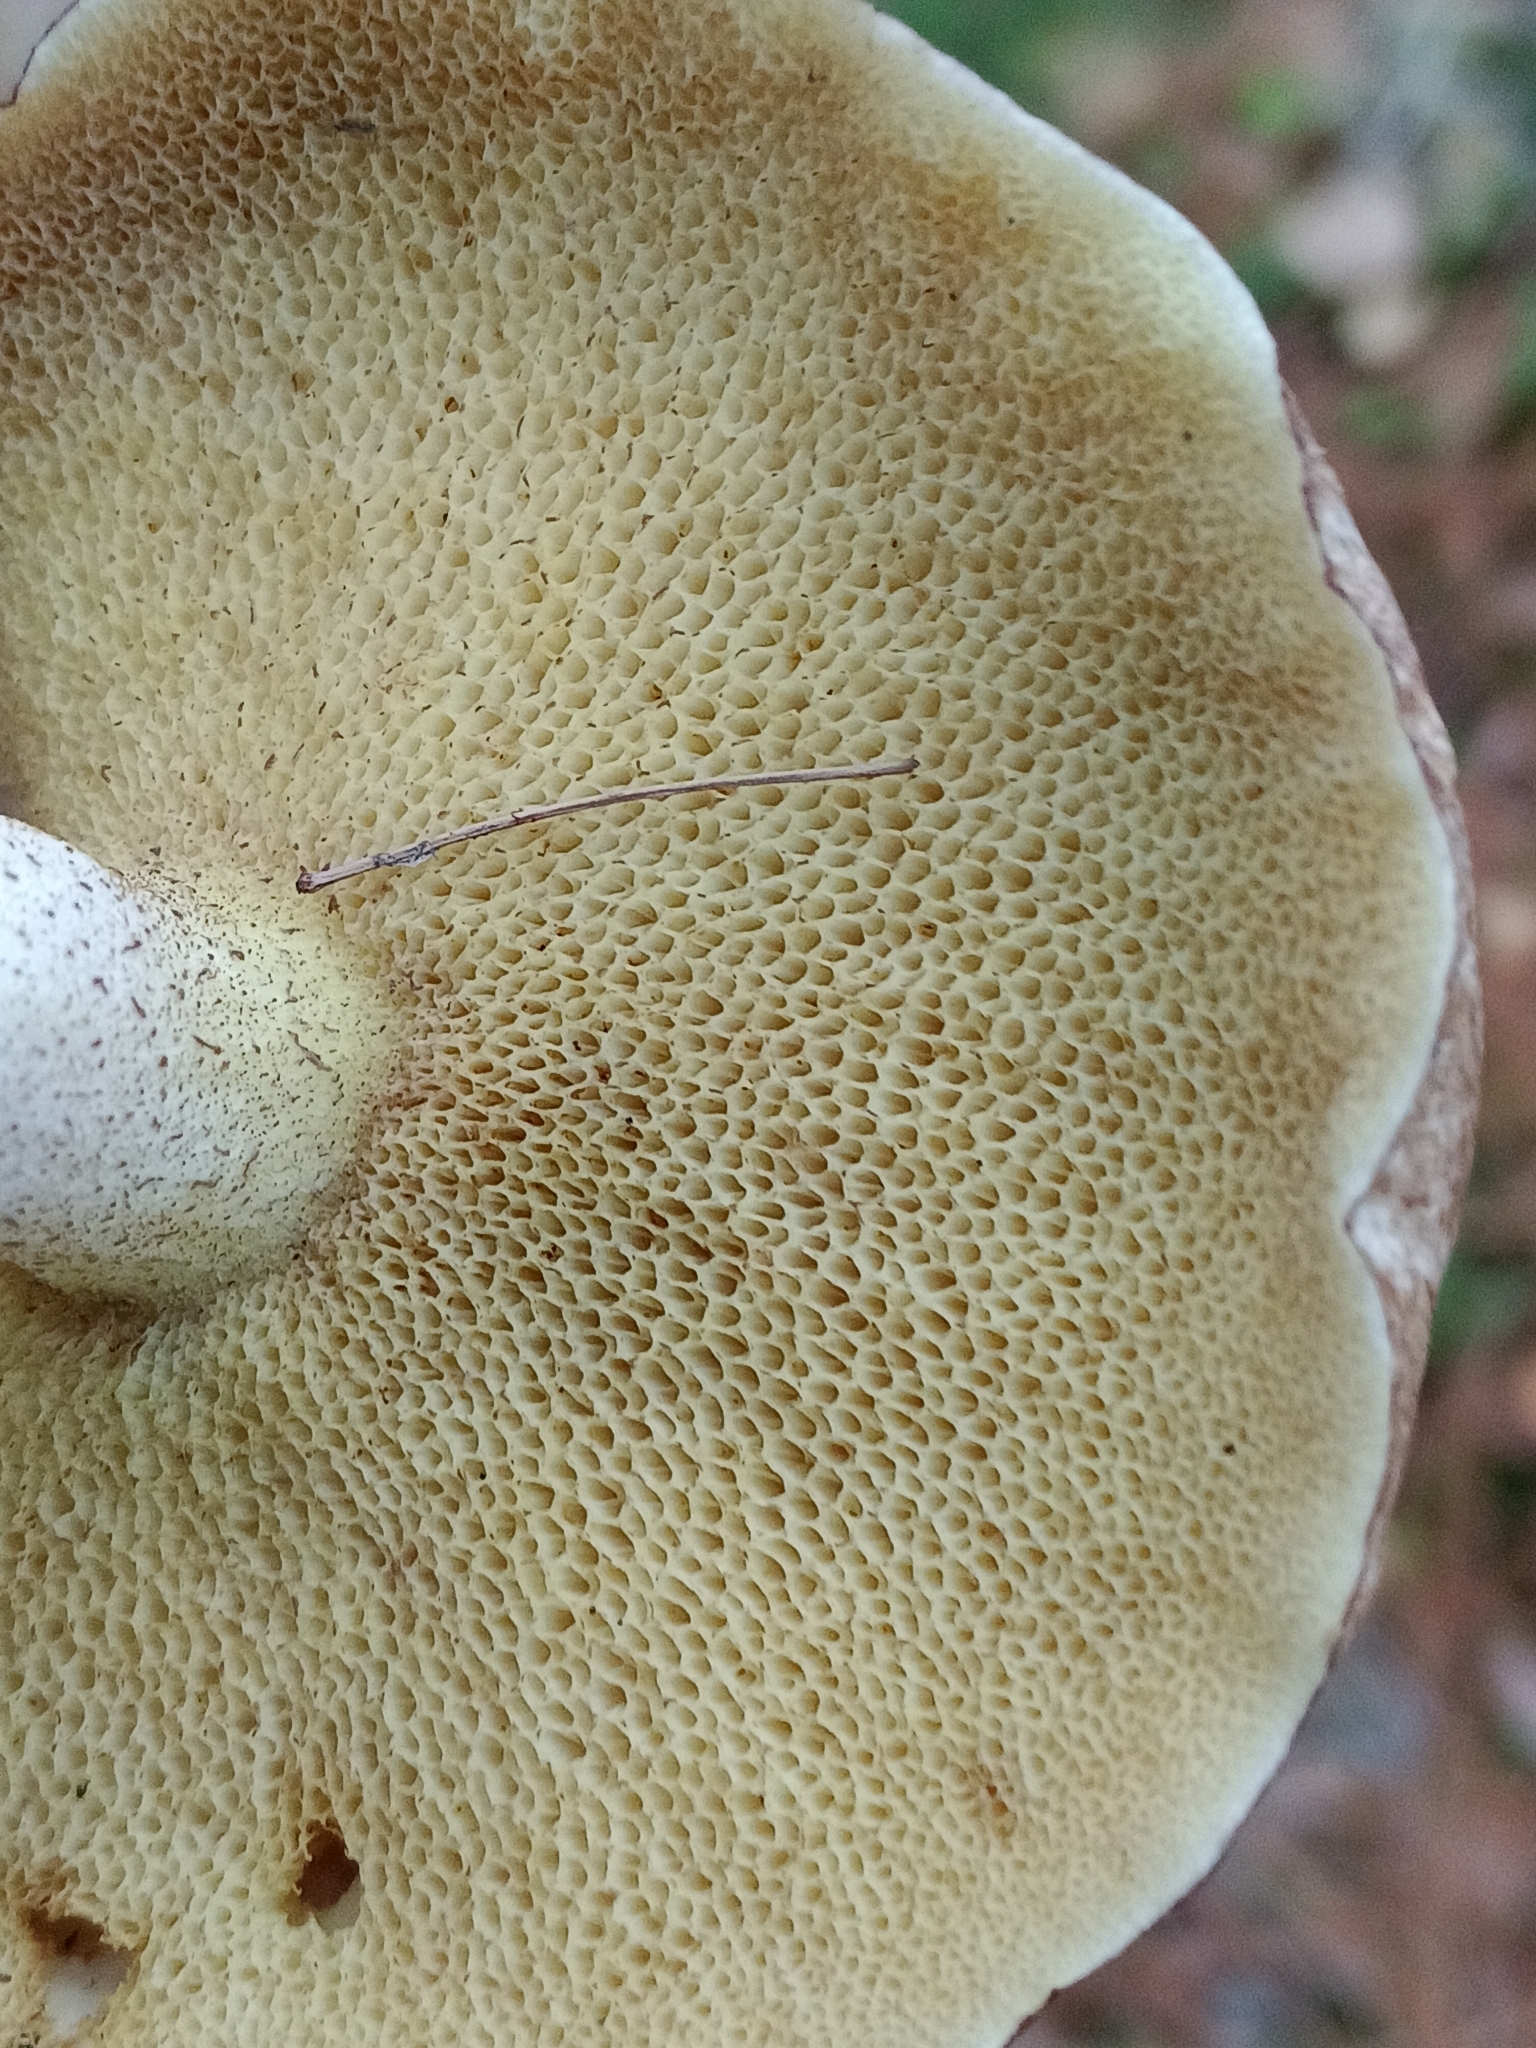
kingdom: Fungi
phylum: Basidiomycota
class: Agaricomycetes
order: Boletales
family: Suillaceae
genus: Suillus
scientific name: Suillus placidus
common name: Slippery white bolete
